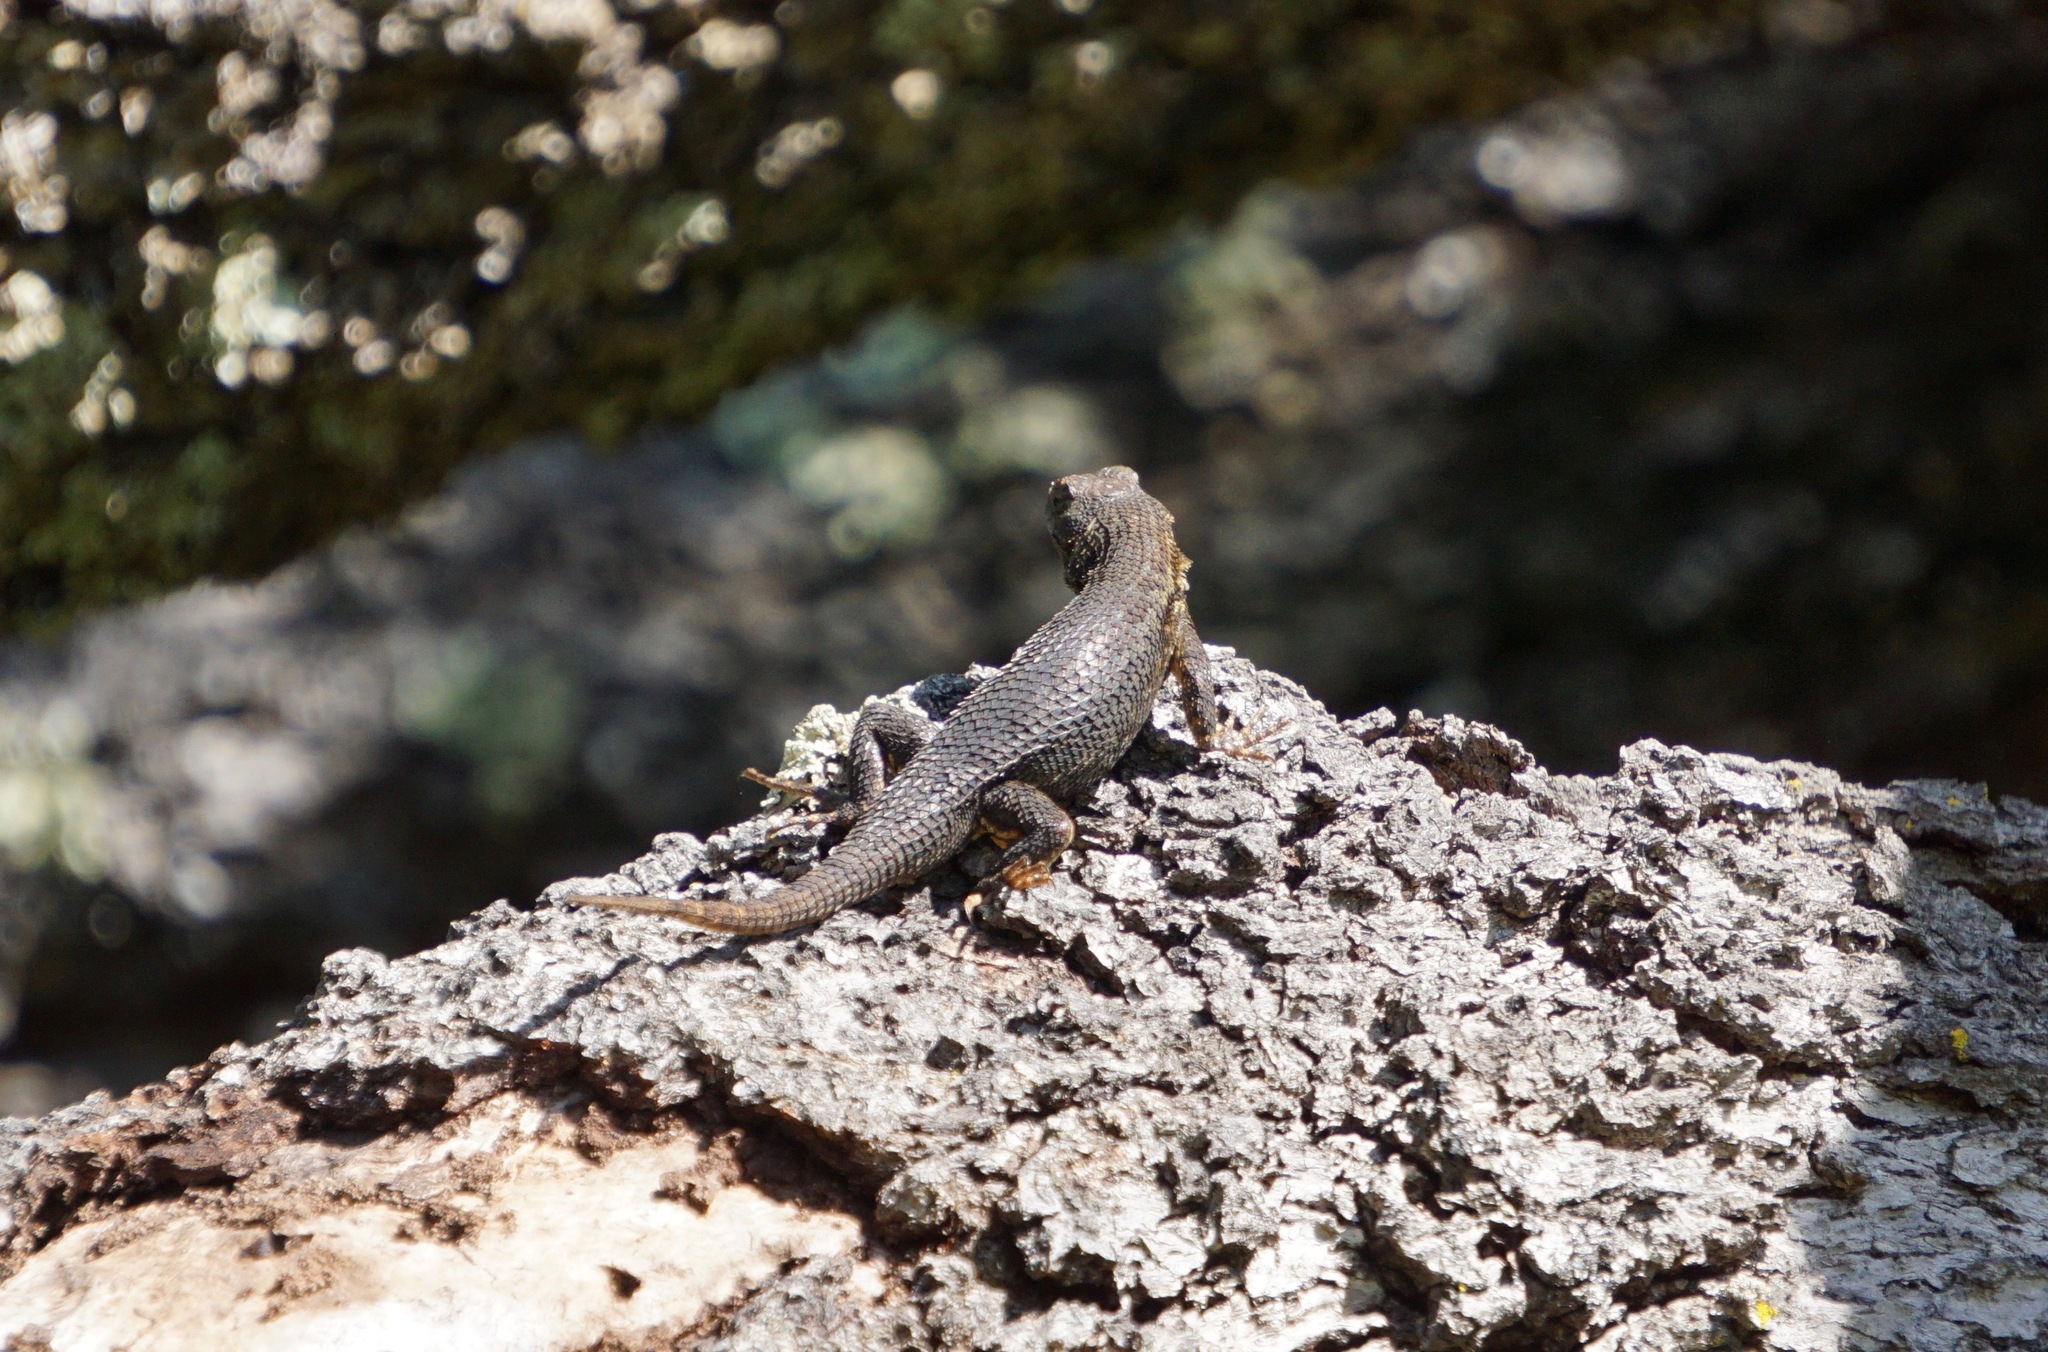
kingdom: Animalia
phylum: Chordata
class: Squamata
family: Phrynosomatidae
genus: Sceloporus
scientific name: Sceloporus occidentalis
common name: Western fence lizard
